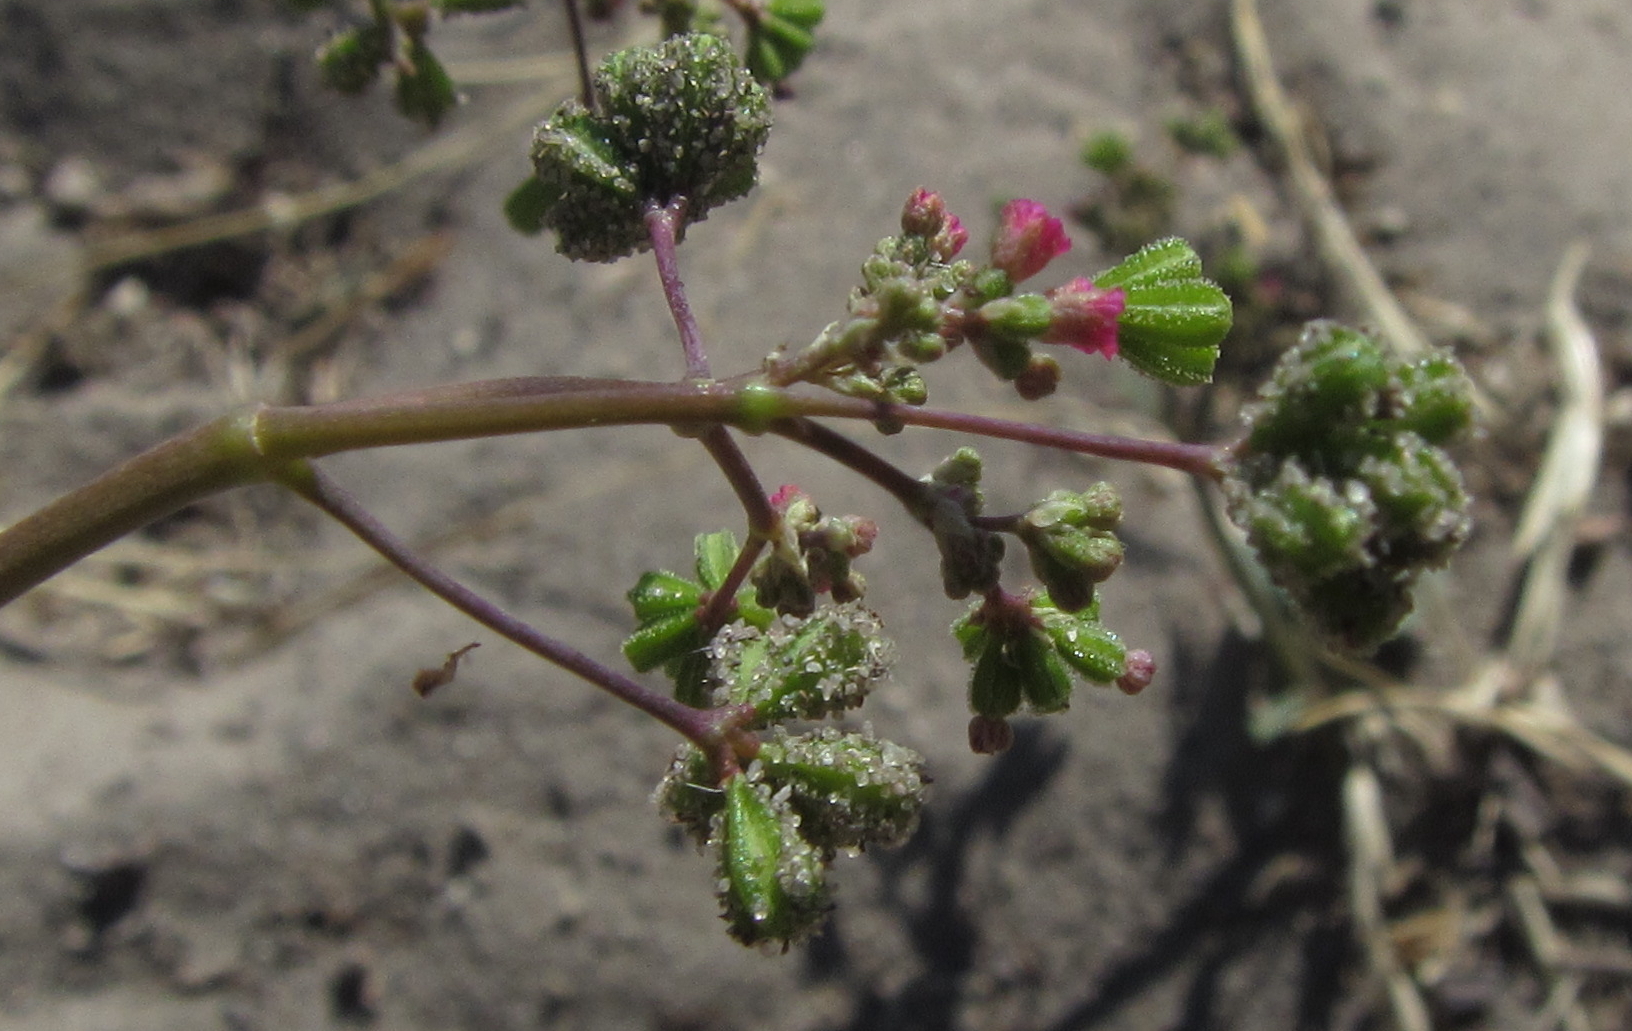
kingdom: Plantae
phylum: Tracheophyta
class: Magnoliopsida
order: Caryophyllales
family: Nyctaginaceae
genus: Boerhavia
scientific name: Boerhavia diffusa
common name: Red spiderling
